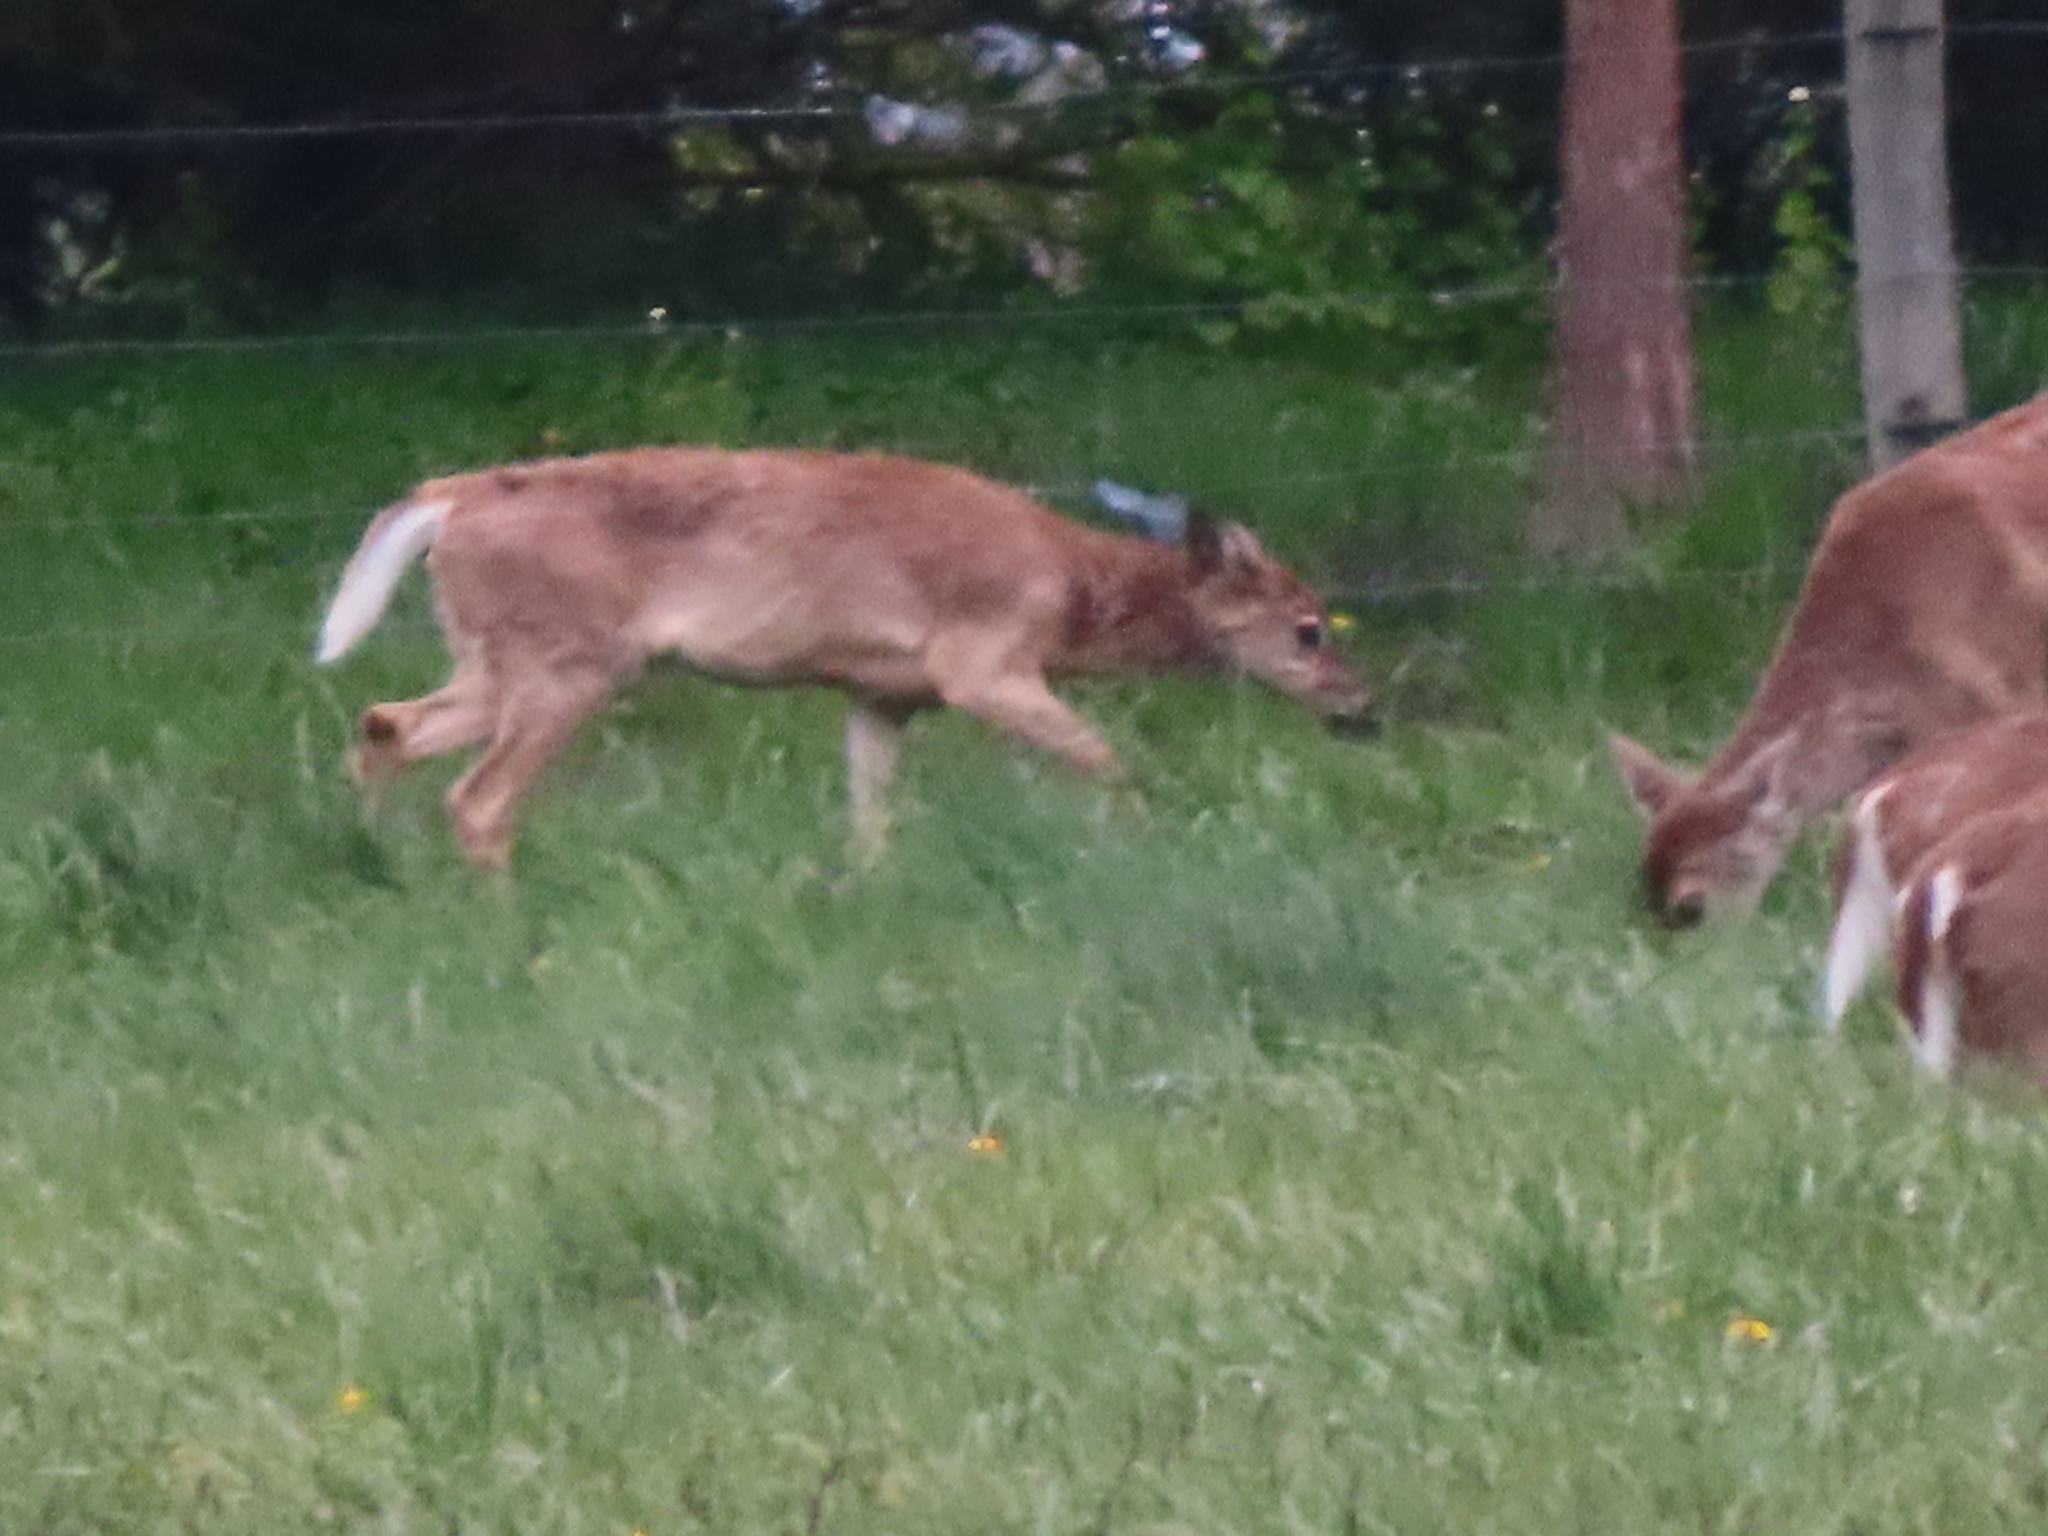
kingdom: Animalia
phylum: Chordata
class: Mammalia
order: Artiodactyla
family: Cervidae
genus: Odocoileus
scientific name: Odocoileus virginianus
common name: White-tailed deer
